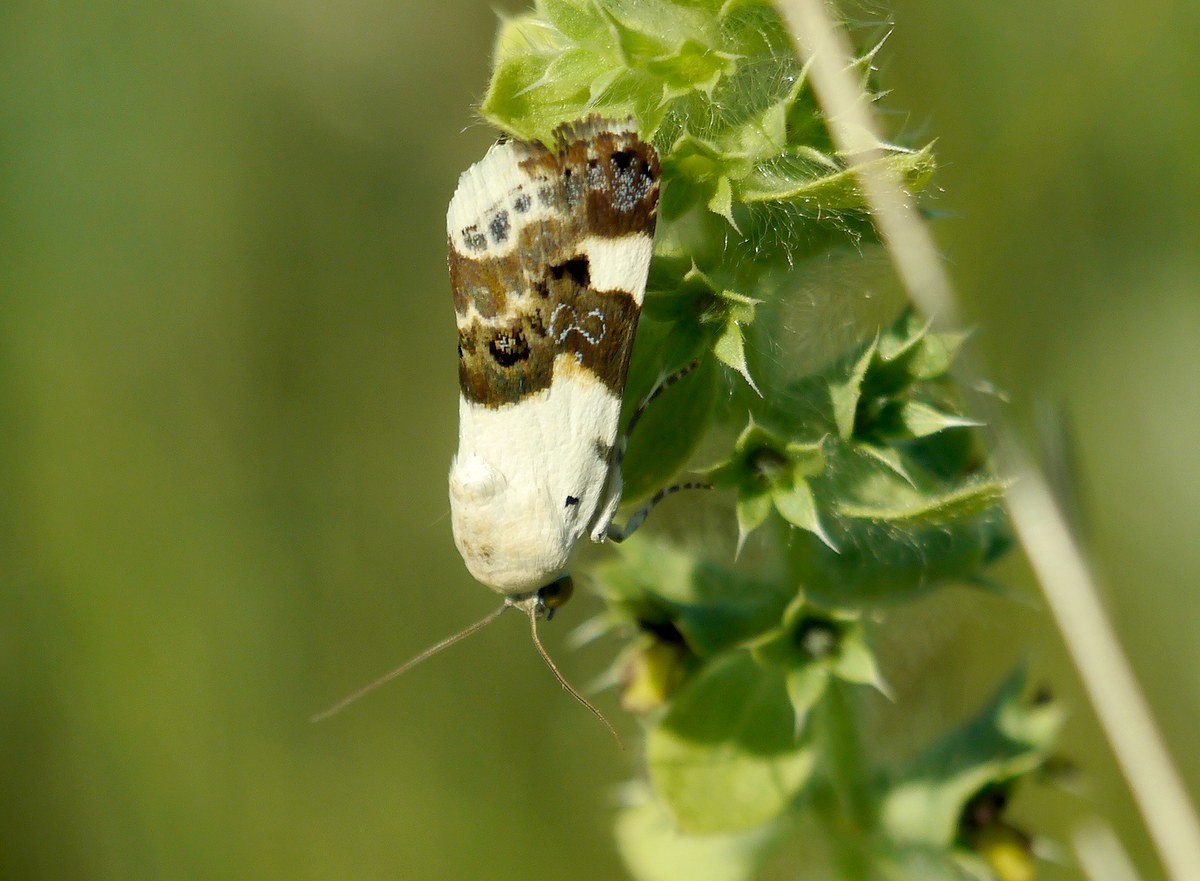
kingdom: Animalia
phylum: Arthropoda
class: Insecta
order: Lepidoptera
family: Noctuidae
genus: Acontia
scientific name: Acontia lucida
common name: Pale shoulder
